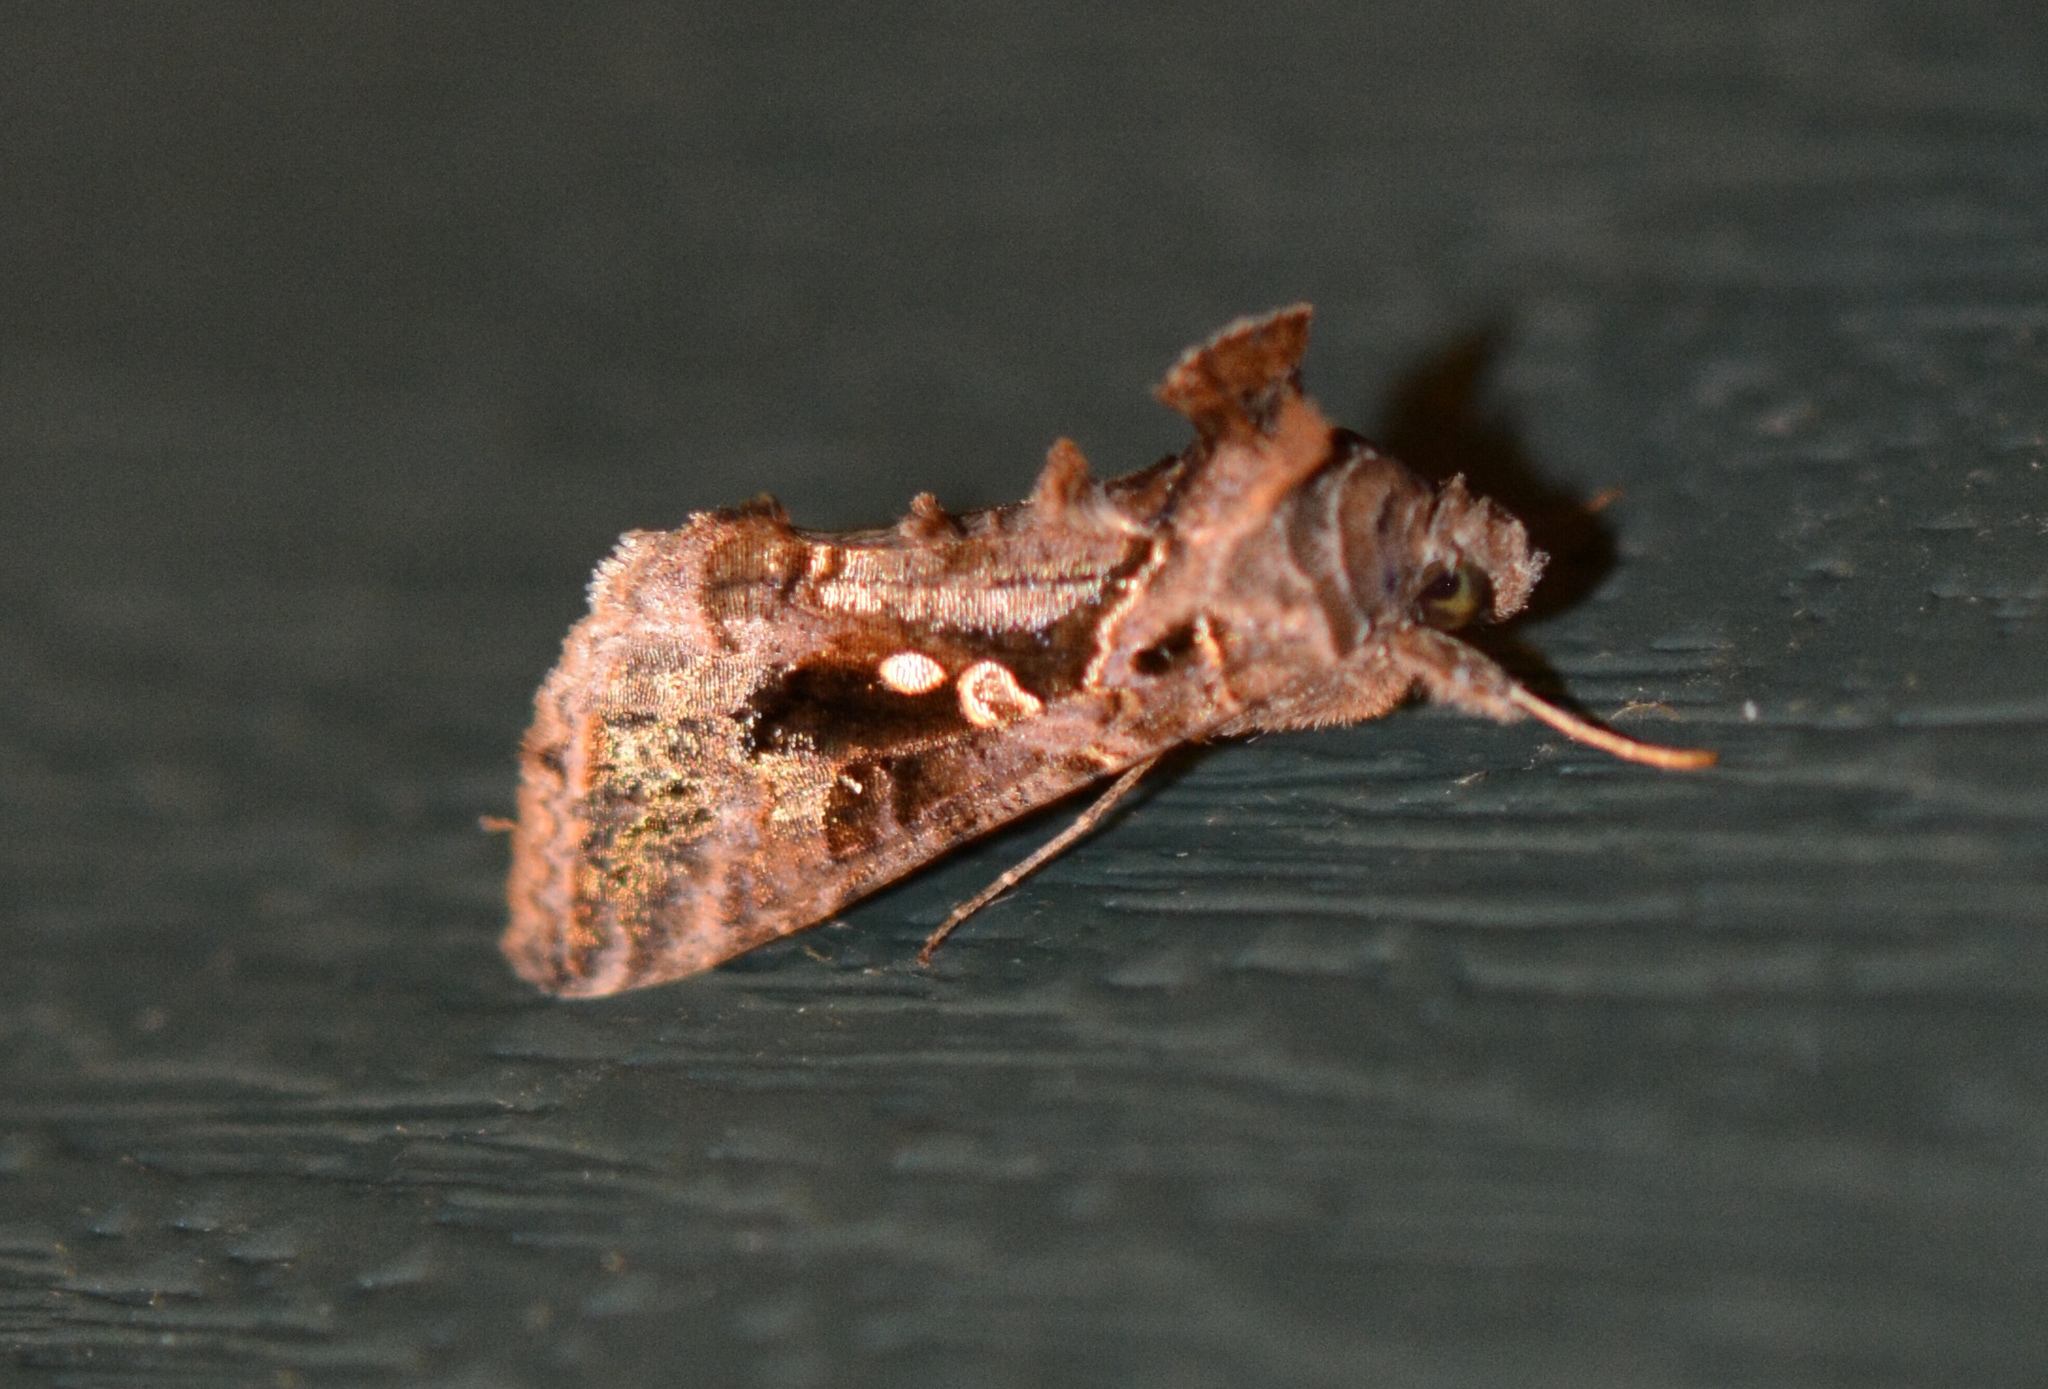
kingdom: Animalia
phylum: Arthropoda
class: Insecta
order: Lepidoptera
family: Noctuidae
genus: Chrysodeixis
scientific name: Chrysodeixis includens
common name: Cutworm moth
